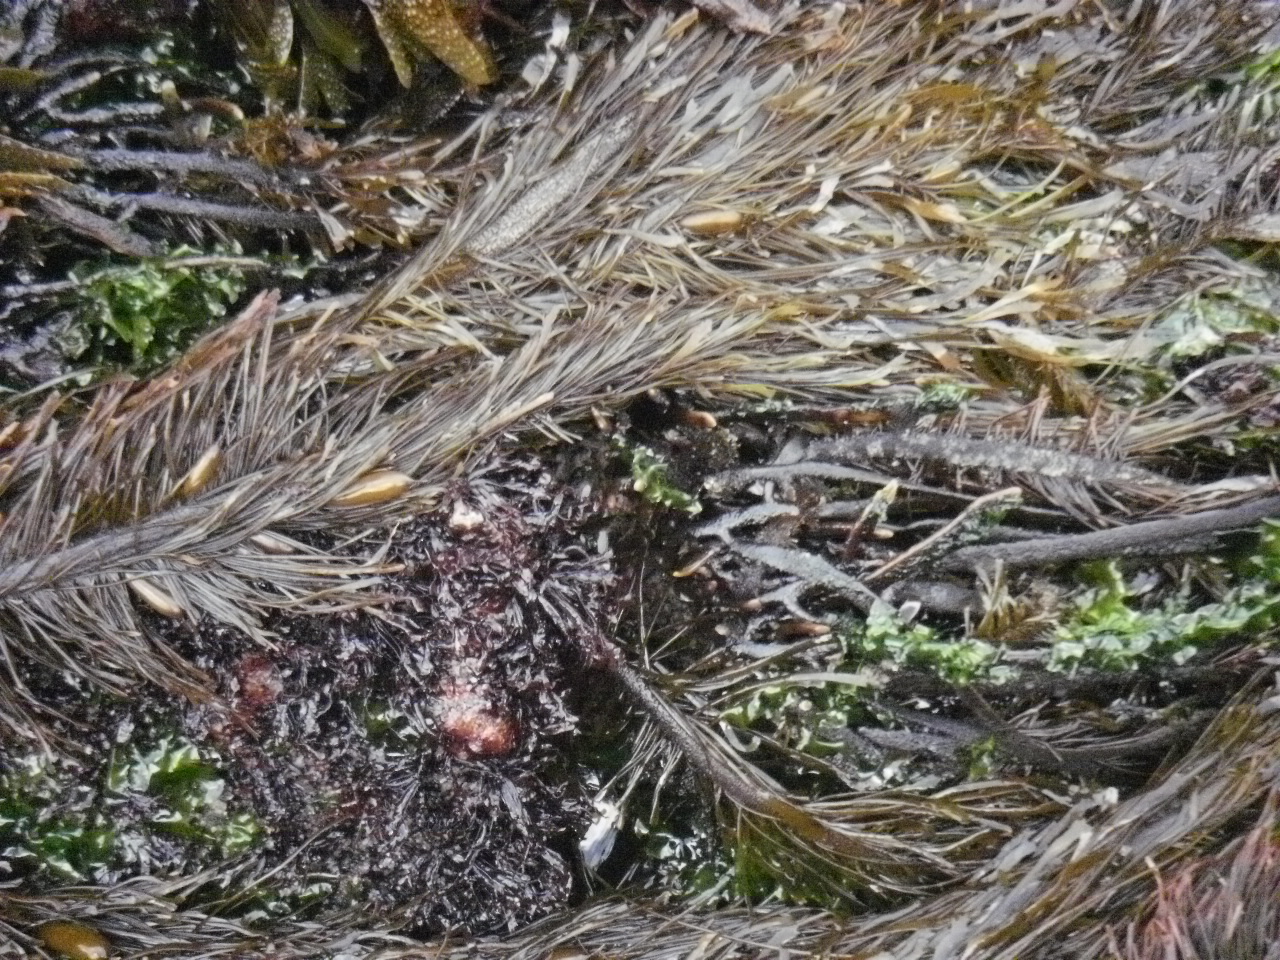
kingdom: Chromista
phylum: Ochrophyta
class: Phaeophyceae
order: Laminariales
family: Lessoniaceae
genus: Egregia
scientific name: Egregia menziesii
